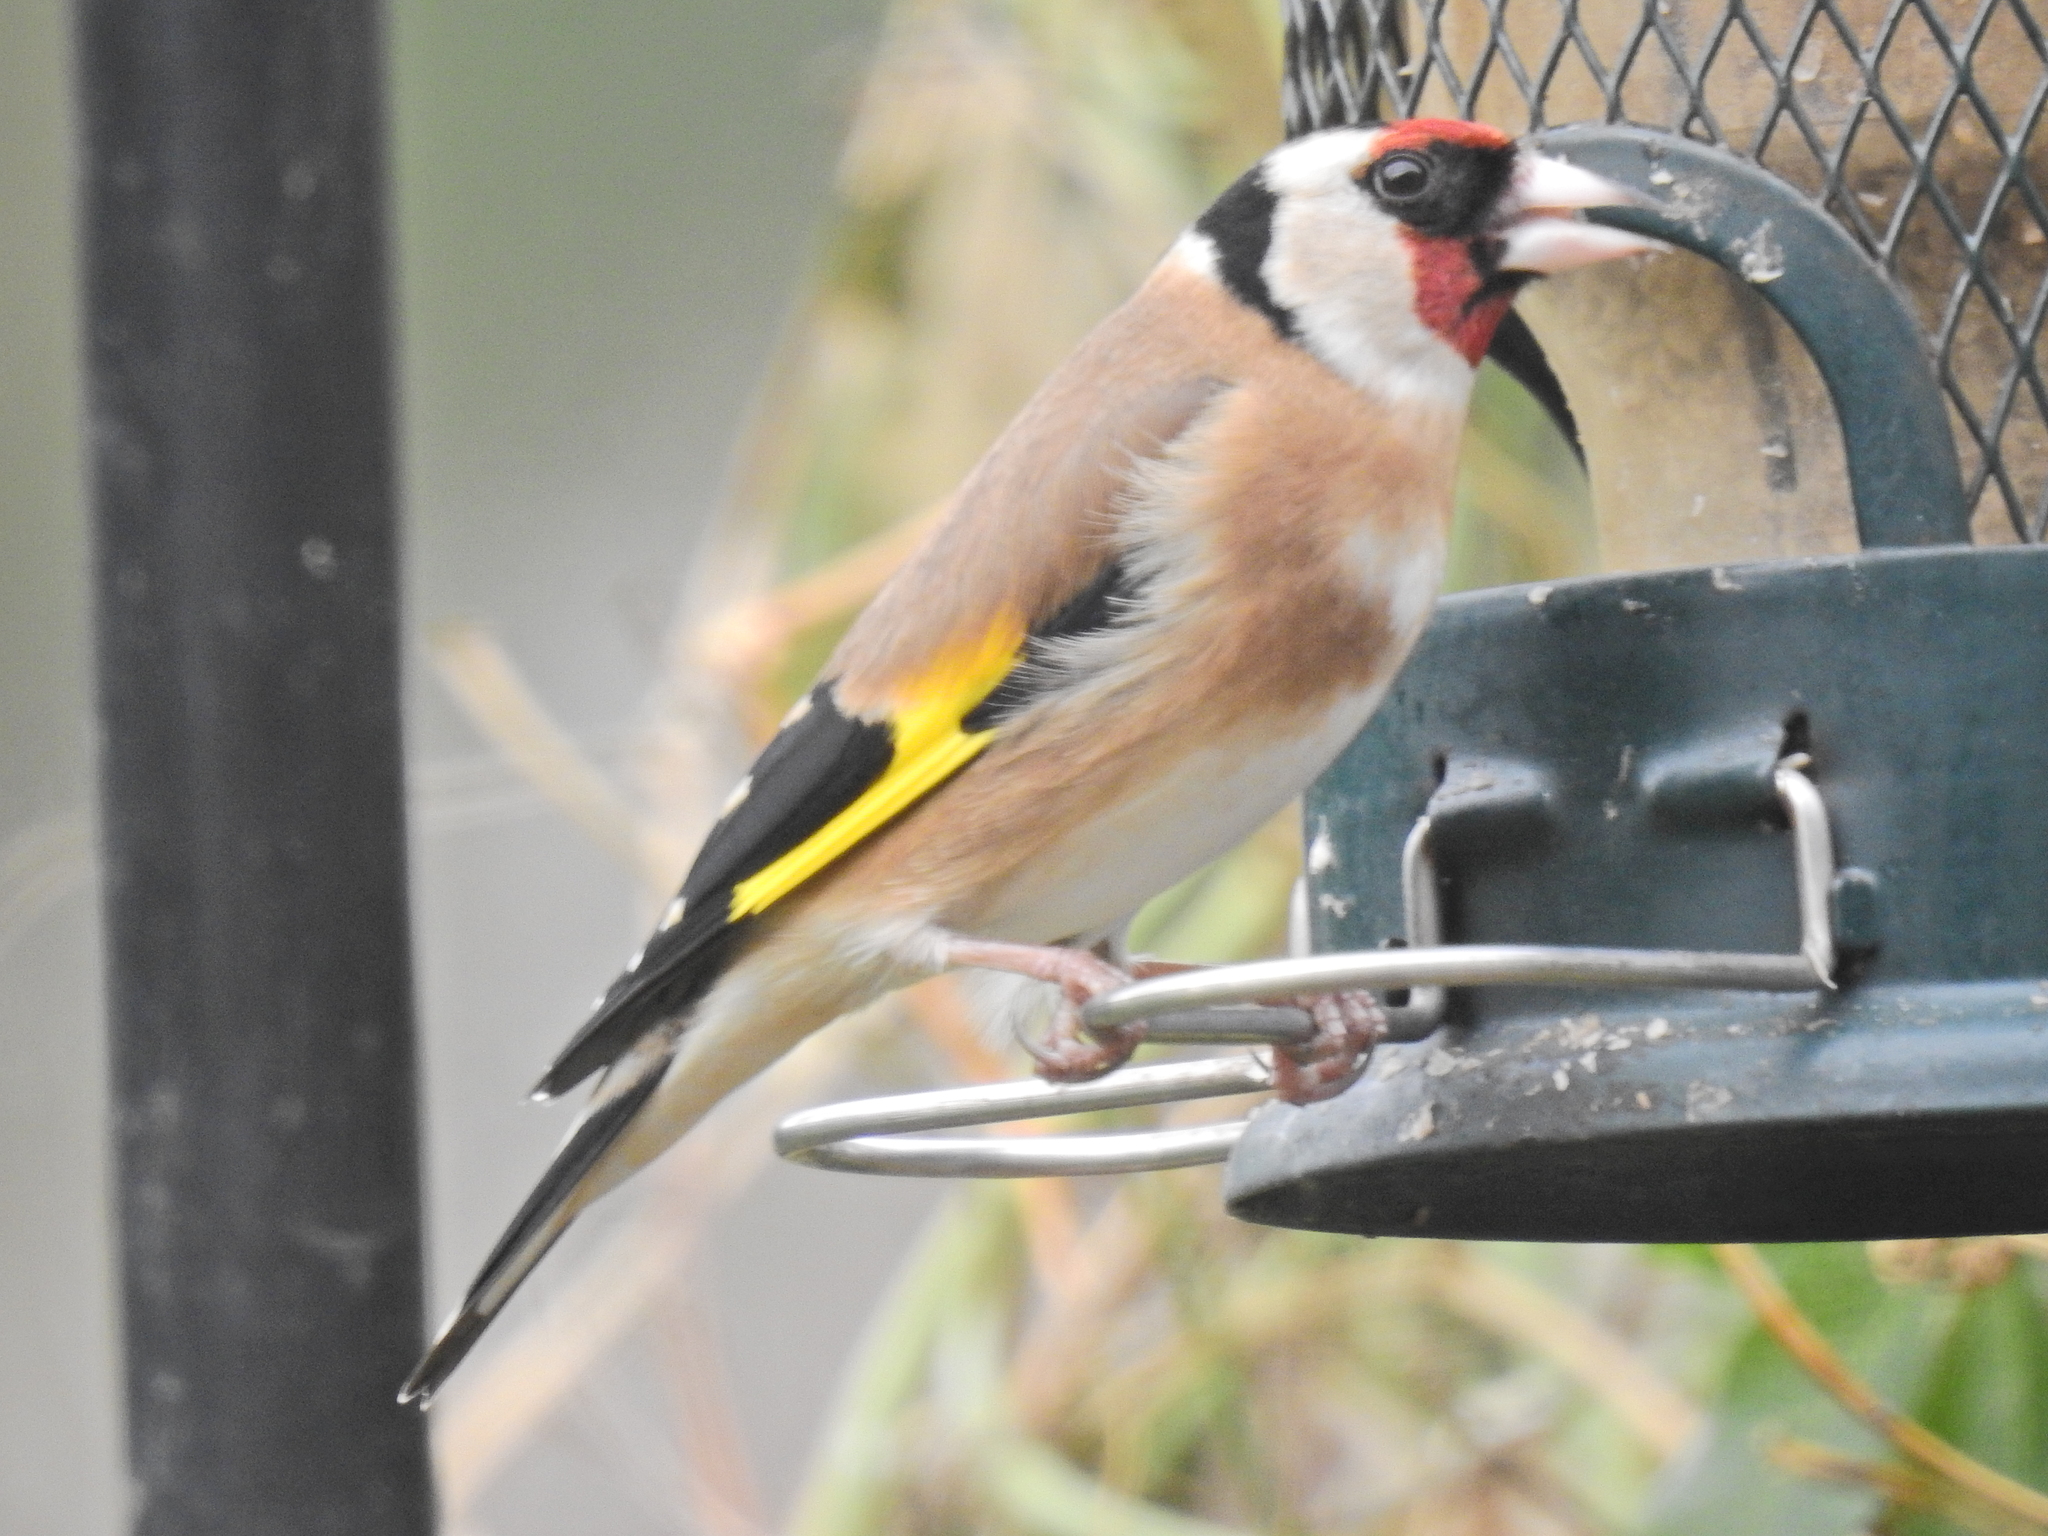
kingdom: Animalia
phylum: Chordata
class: Aves
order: Passeriformes
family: Fringillidae
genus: Carduelis
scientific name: Carduelis carduelis
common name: European goldfinch
